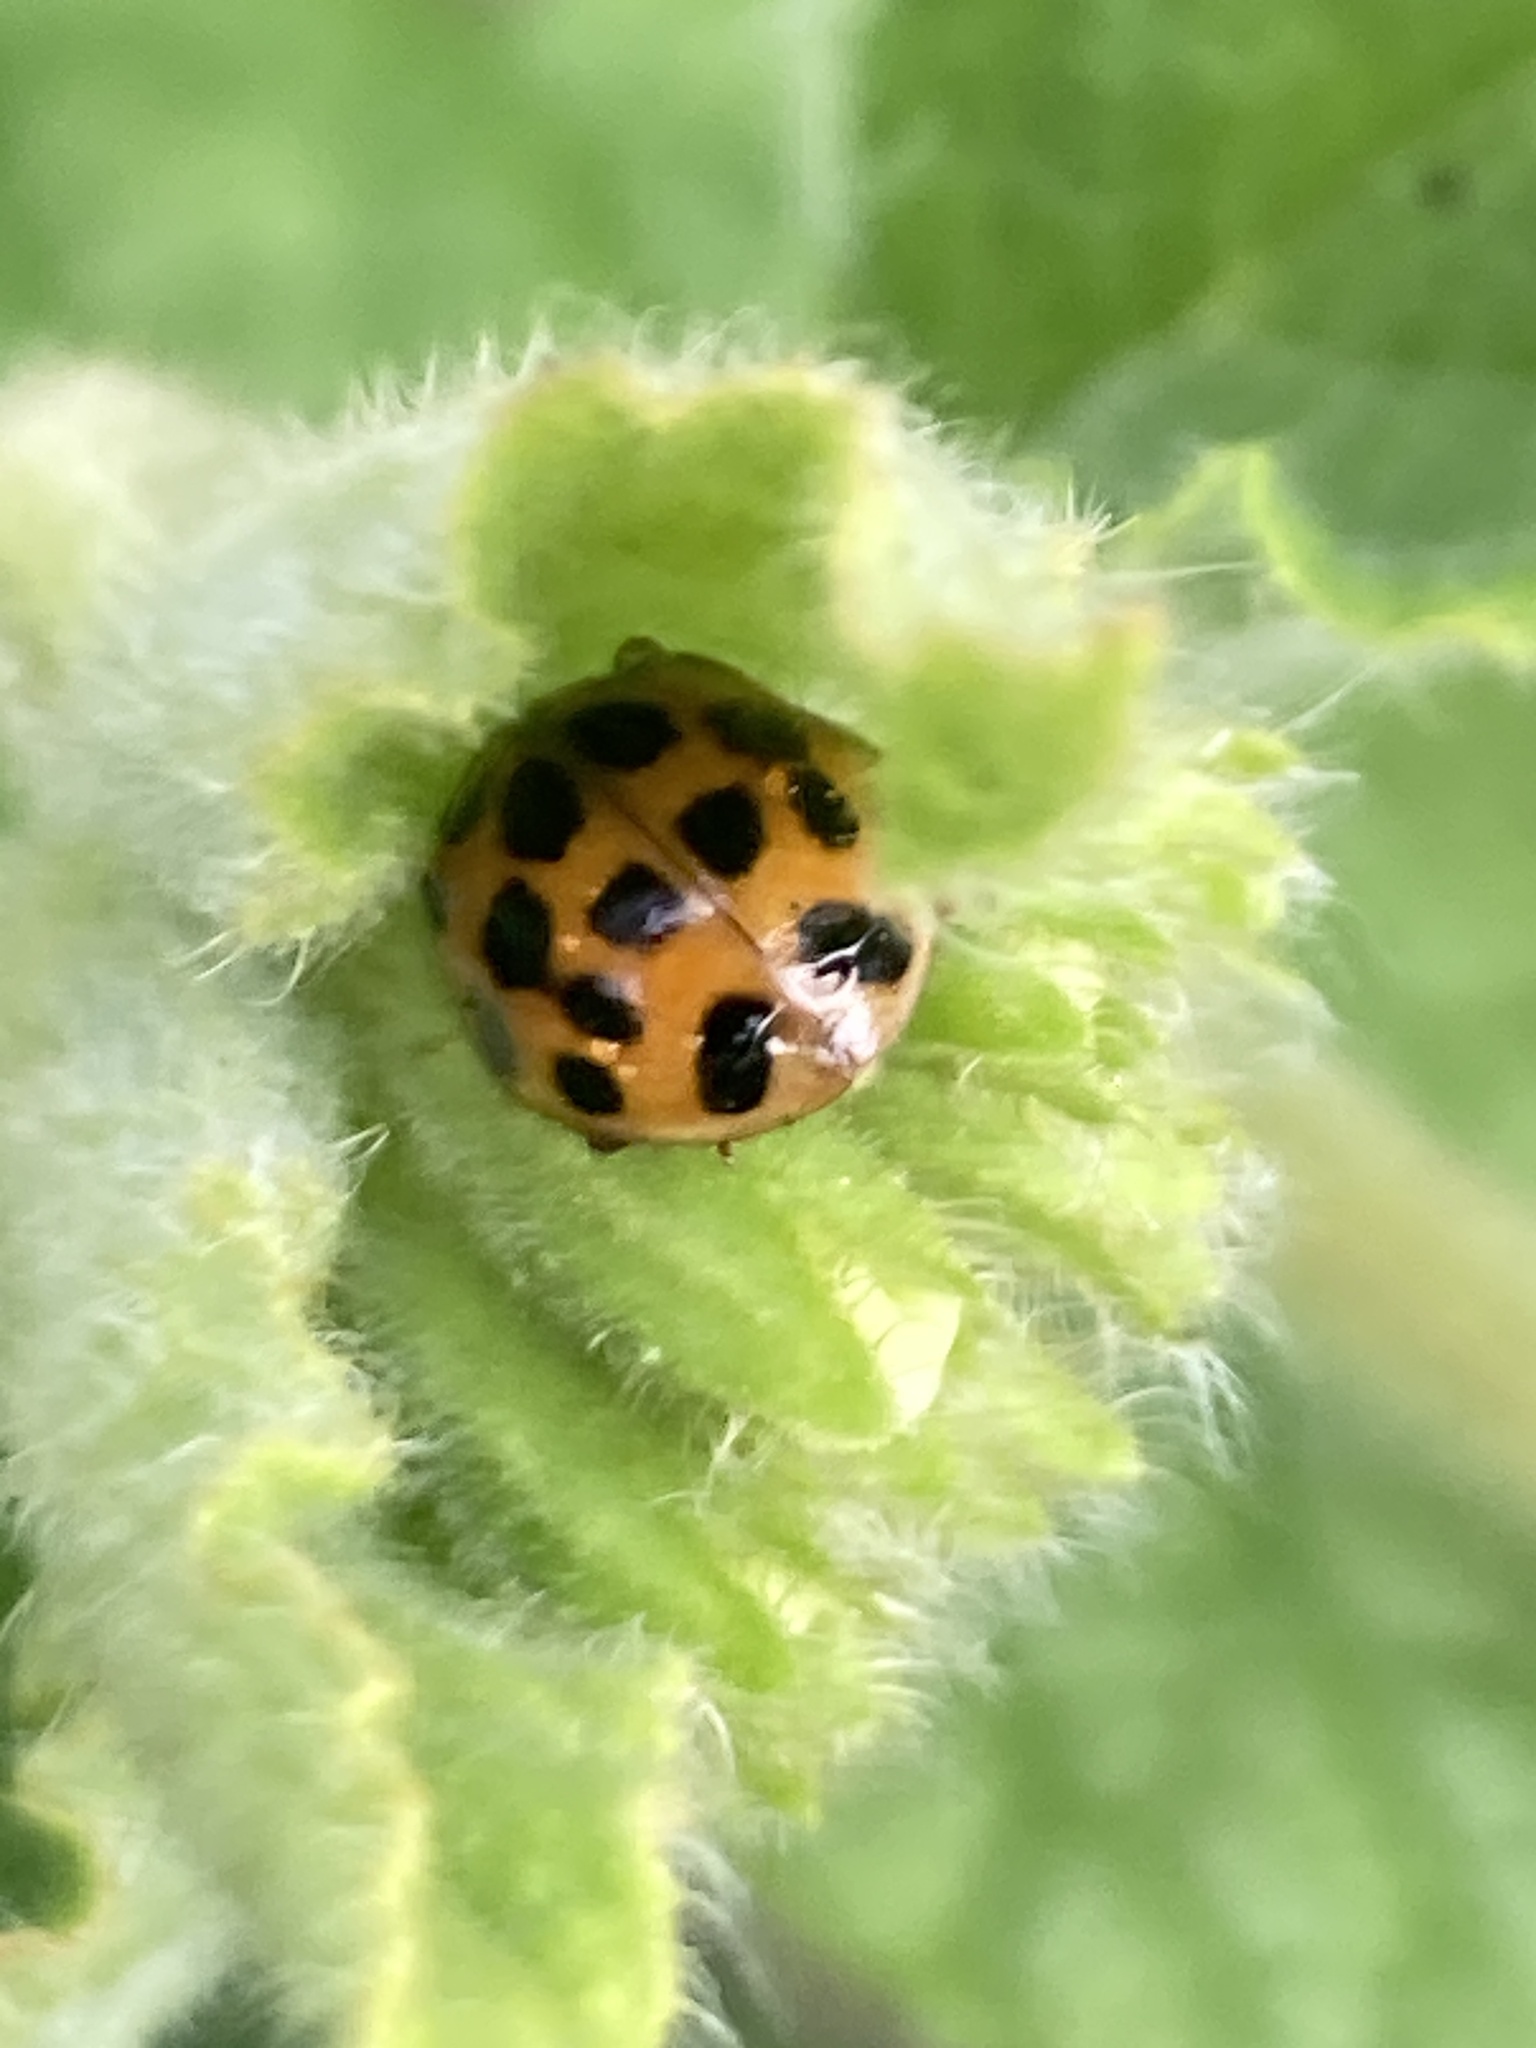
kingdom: Animalia
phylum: Arthropoda
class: Insecta
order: Coleoptera
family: Coccinellidae
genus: Harmonia
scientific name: Harmonia axyridis
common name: Harlequin ladybird
